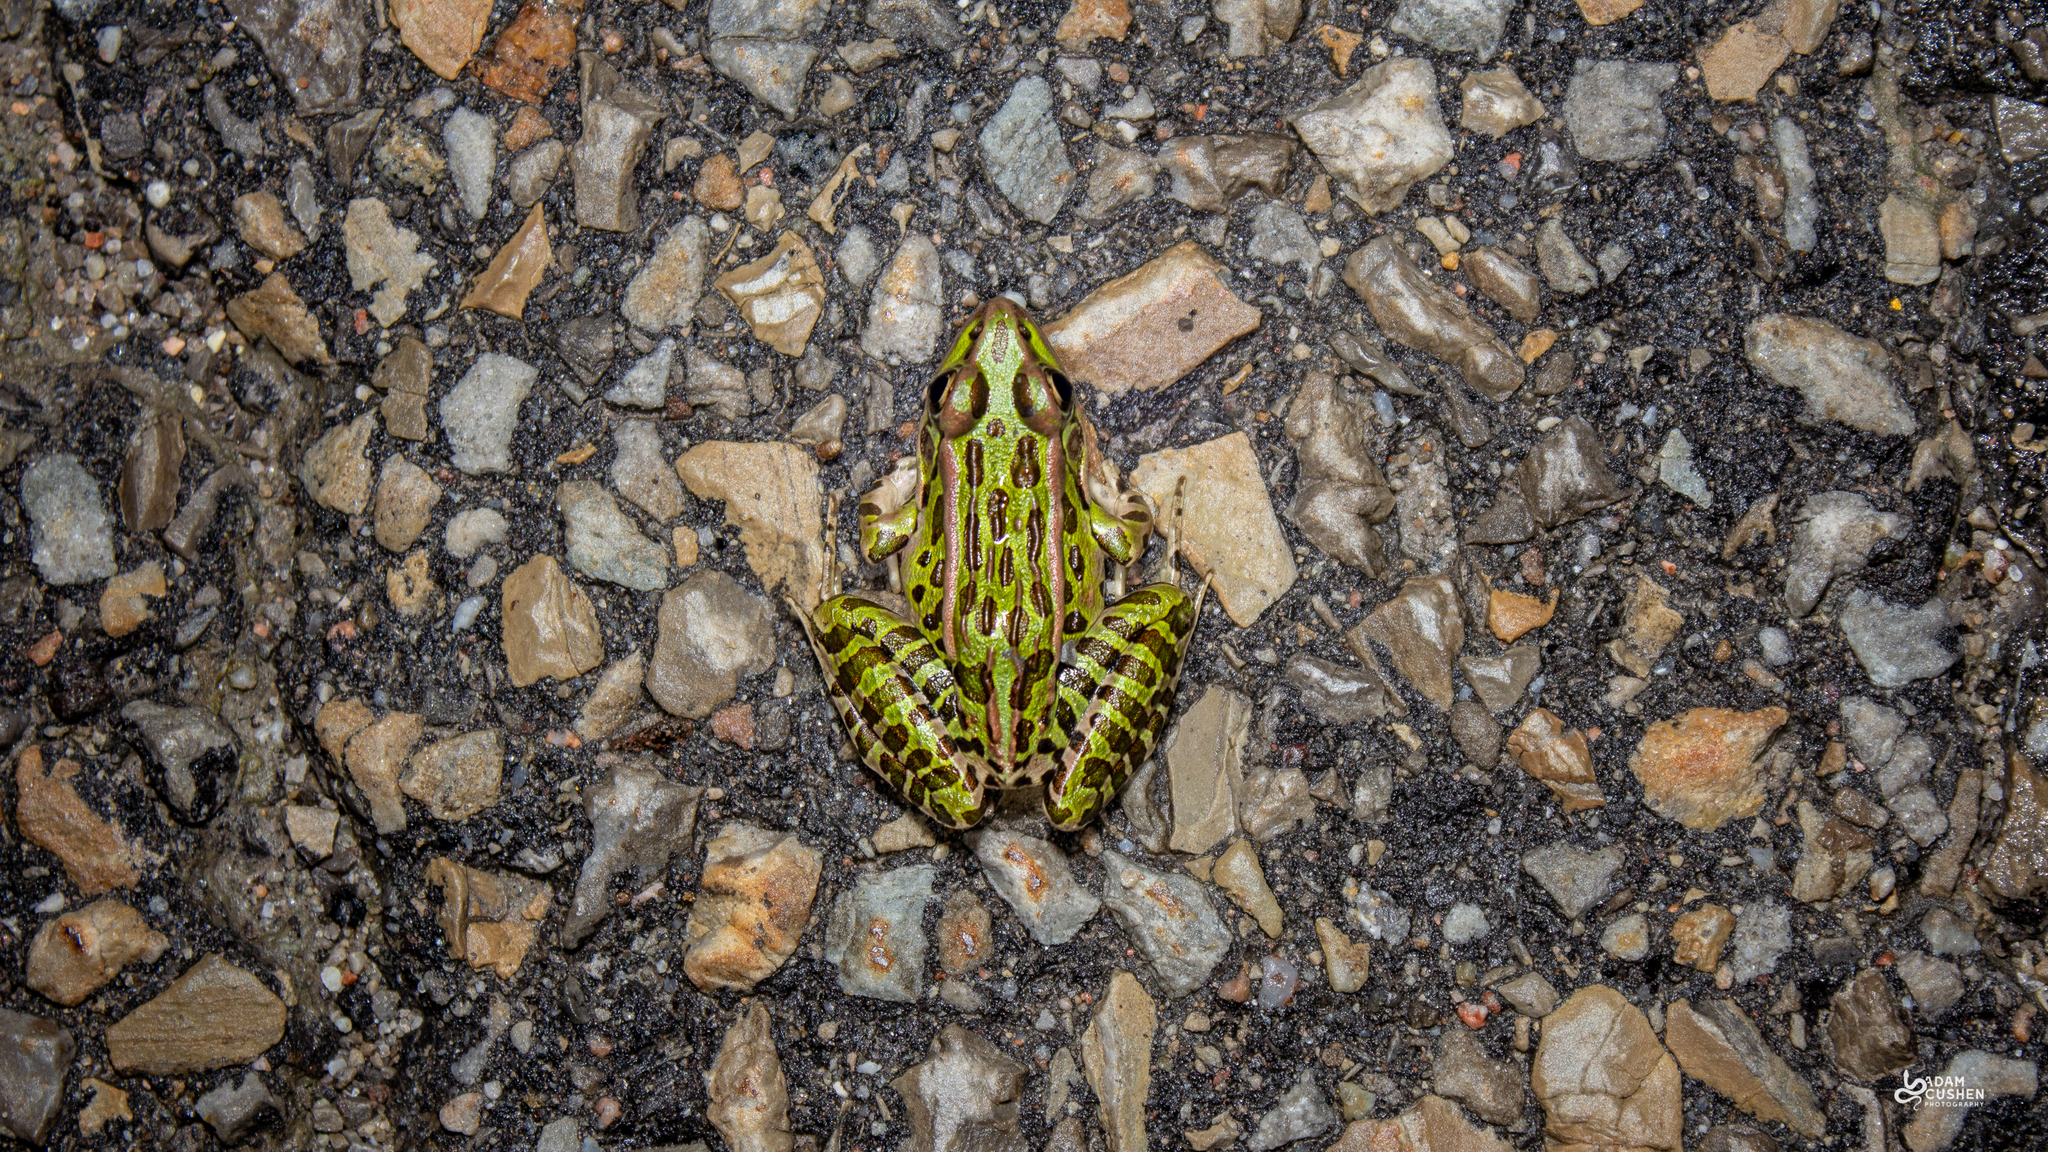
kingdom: Animalia
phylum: Chordata
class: Amphibia
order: Anura
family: Ranidae
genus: Lithobates
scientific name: Lithobates pipiens
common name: Northern leopard frog
